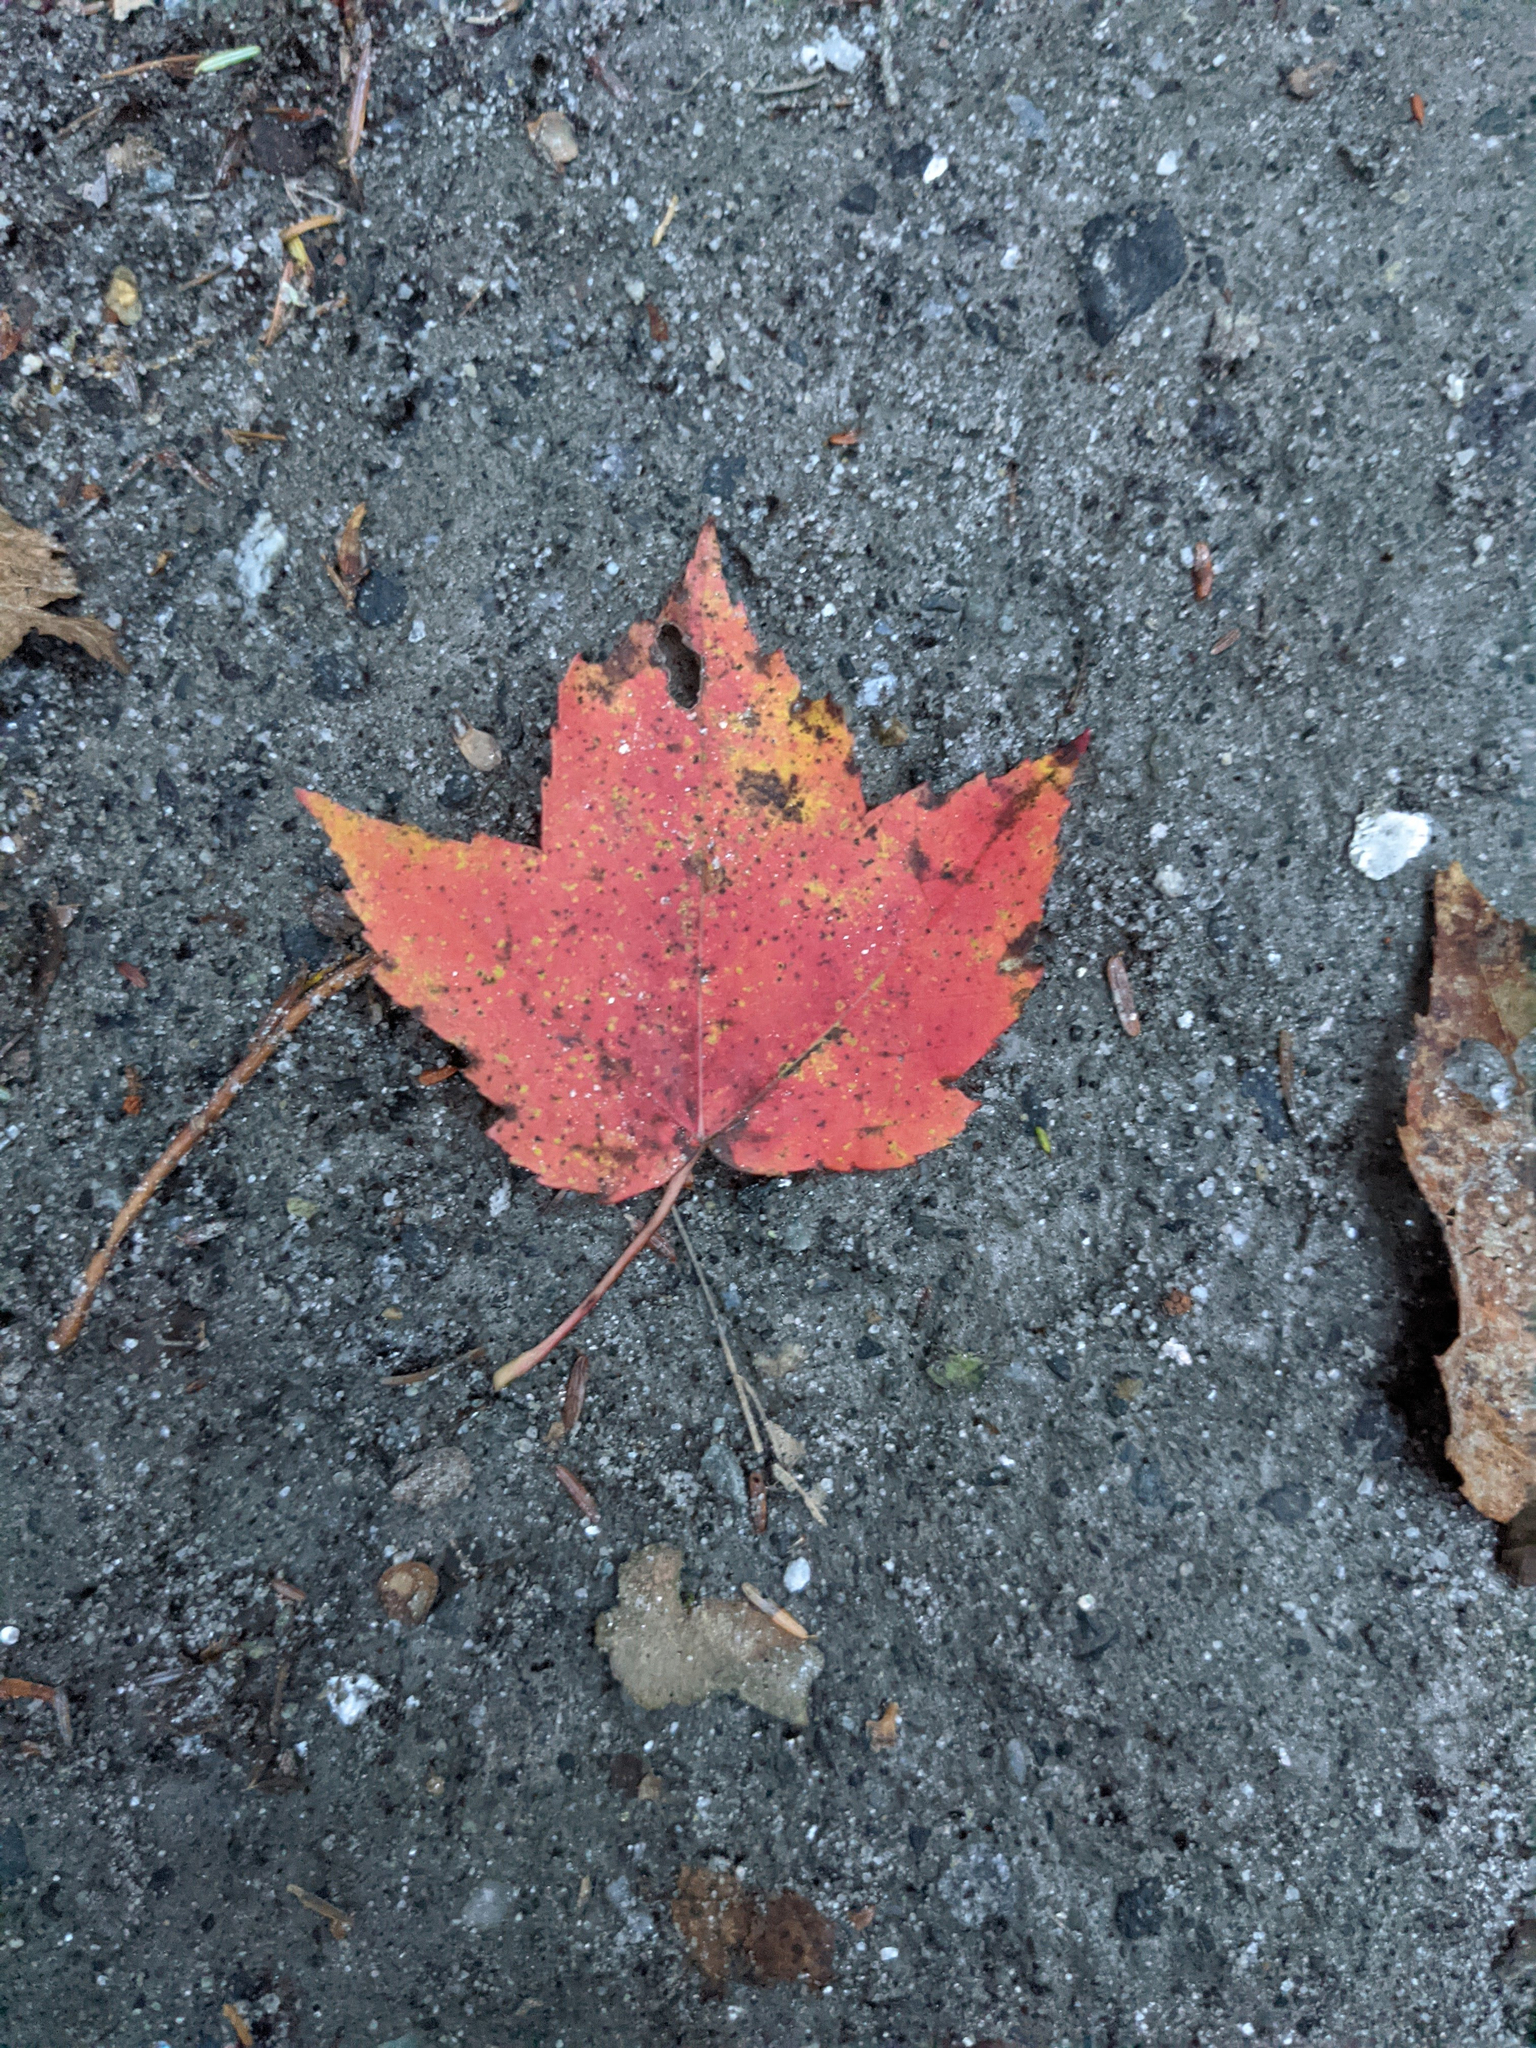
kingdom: Plantae
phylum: Tracheophyta
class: Magnoliopsida
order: Sapindales
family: Sapindaceae
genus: Acer
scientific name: Acer rubrum
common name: Red maple
